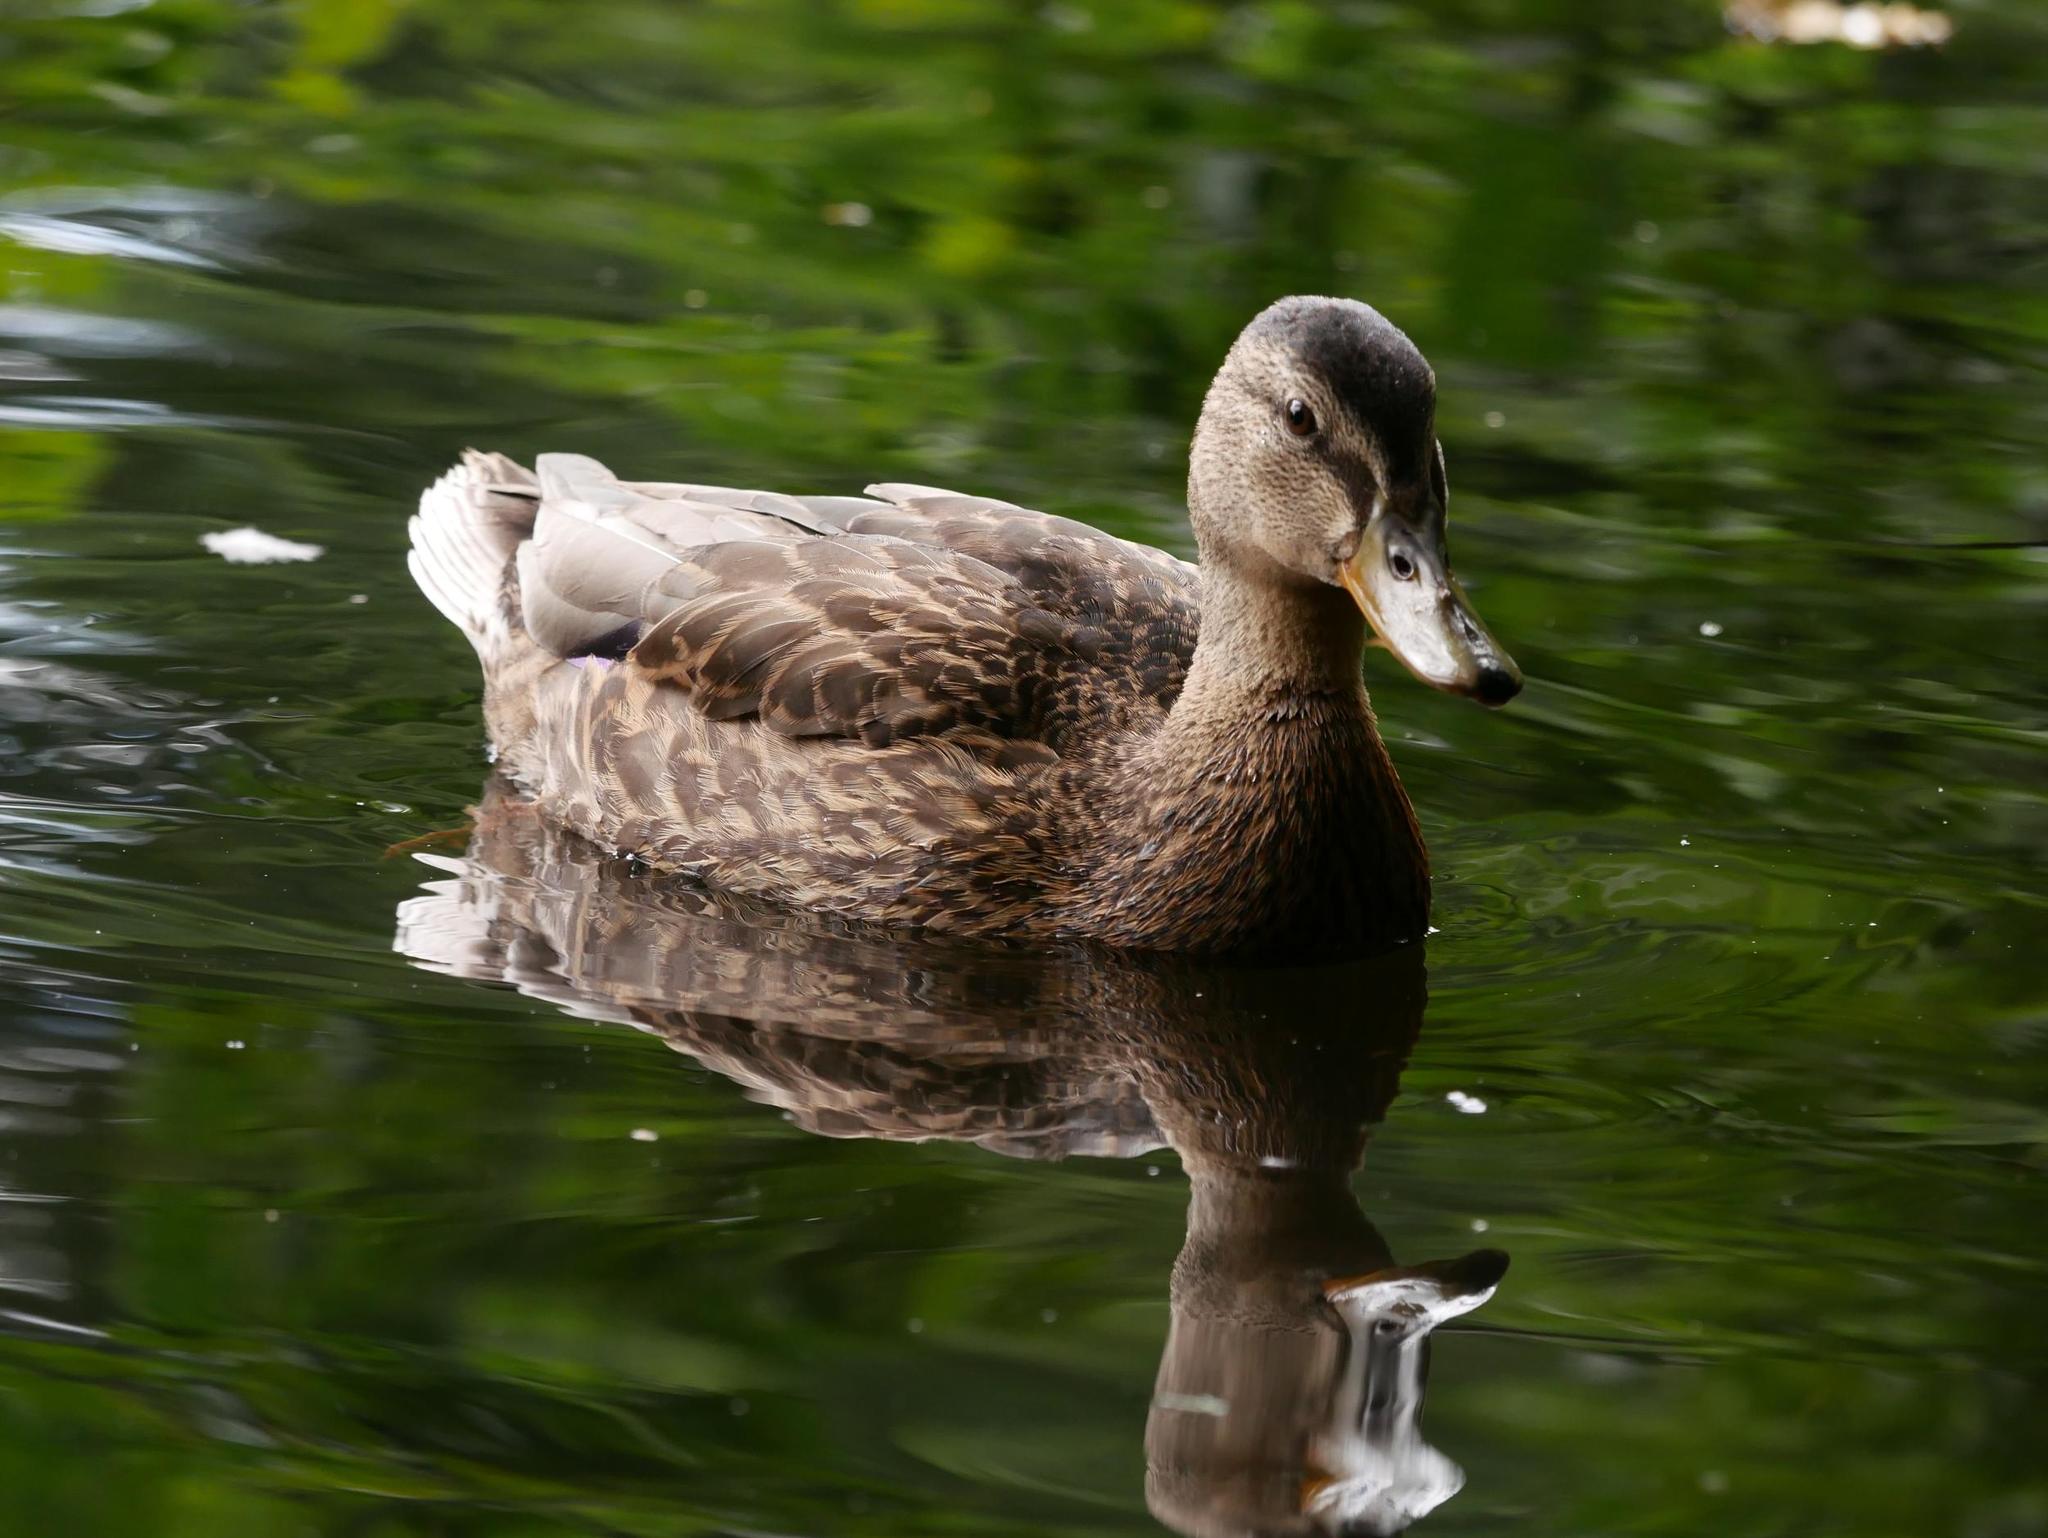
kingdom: Animalia
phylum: Chordata
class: Aves
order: Anseriformes
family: Anatidae
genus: Anas
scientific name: Anas platyrhynchos
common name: Mallard
